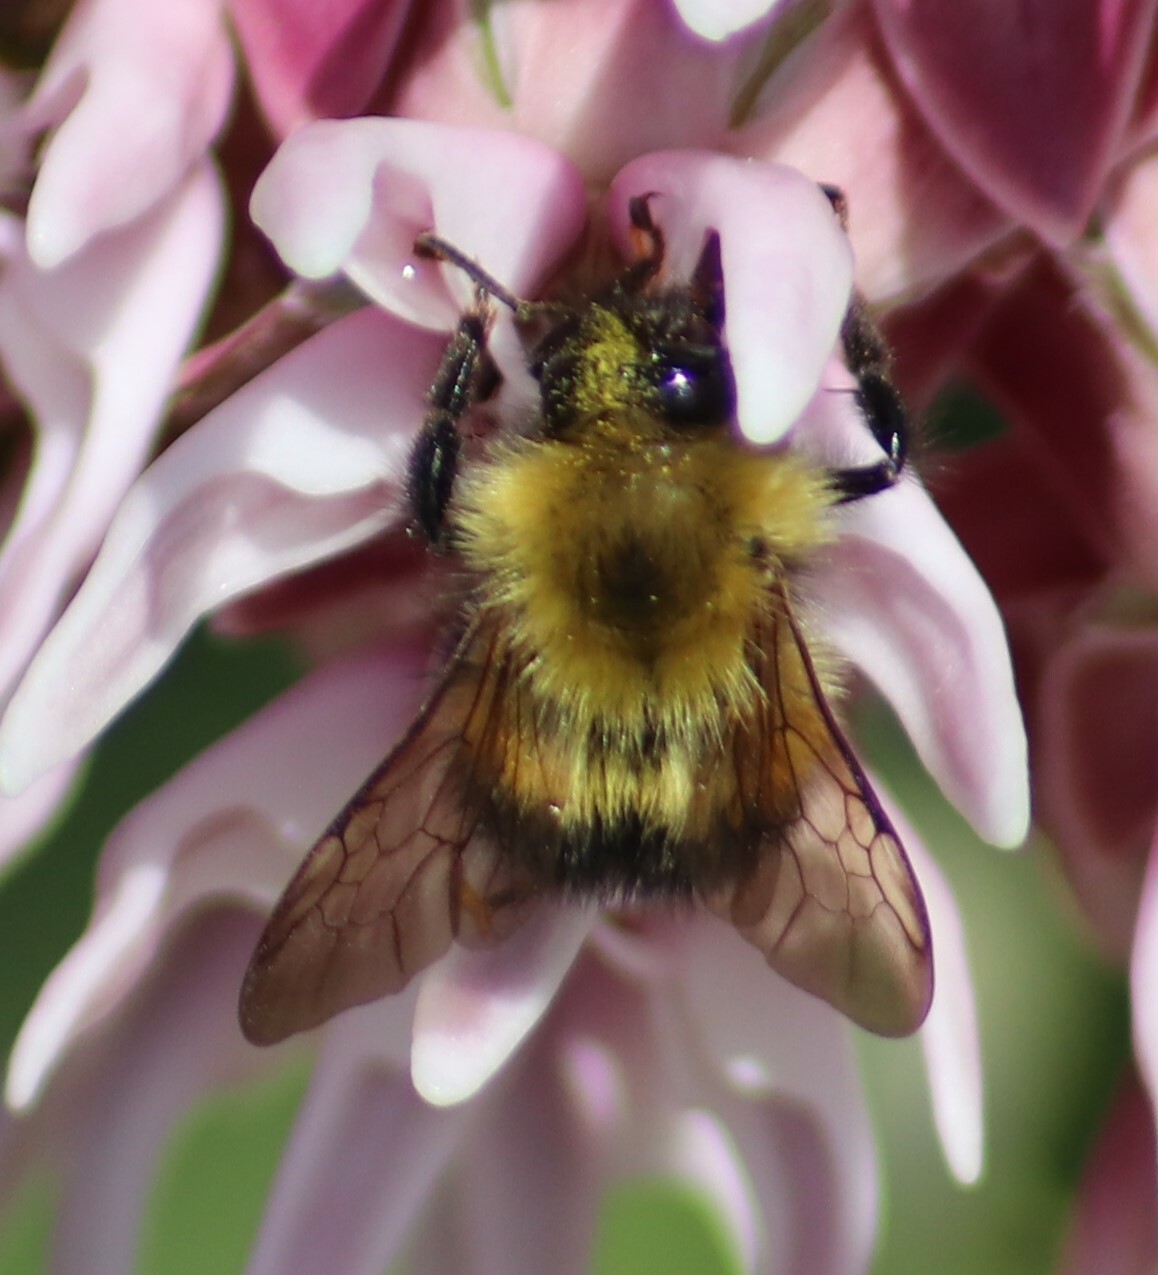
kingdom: Animalia
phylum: Arthropoda
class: Insecta
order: Hymenoptera
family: Apidae
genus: Bombus
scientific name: Bombus perplexus
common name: Confusing bumble bee
